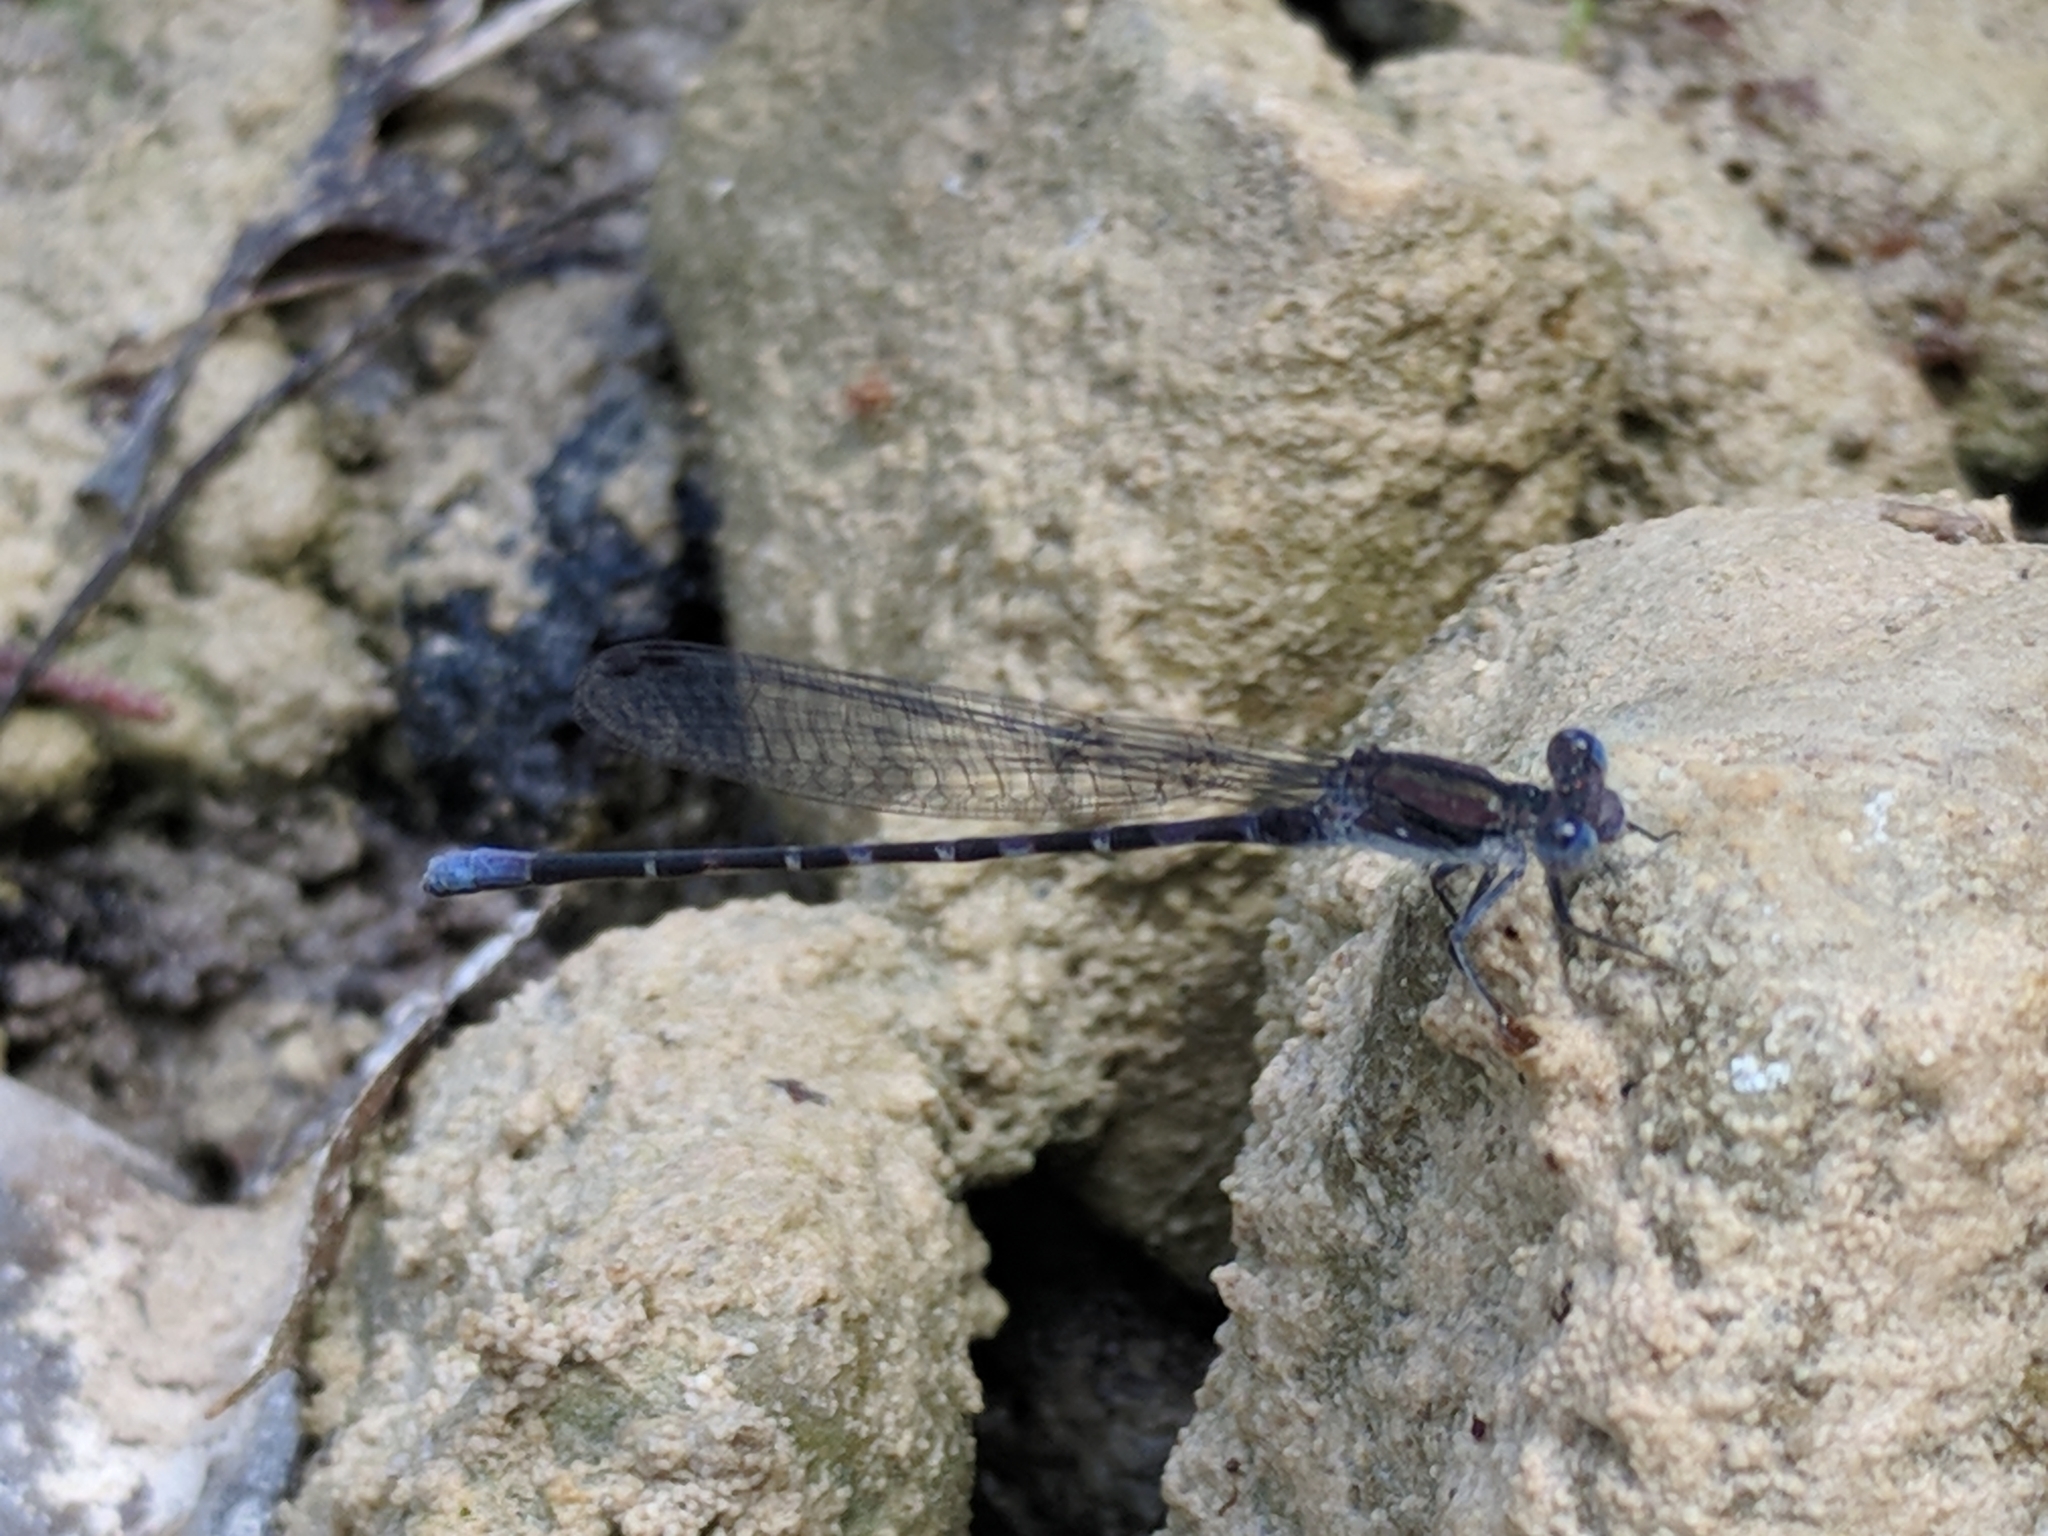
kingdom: Animalia
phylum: Arthropoda
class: Insecta
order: Odonata
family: Coenagrionidae
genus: Argia
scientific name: Argia immunda
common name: Kiowa dancer
